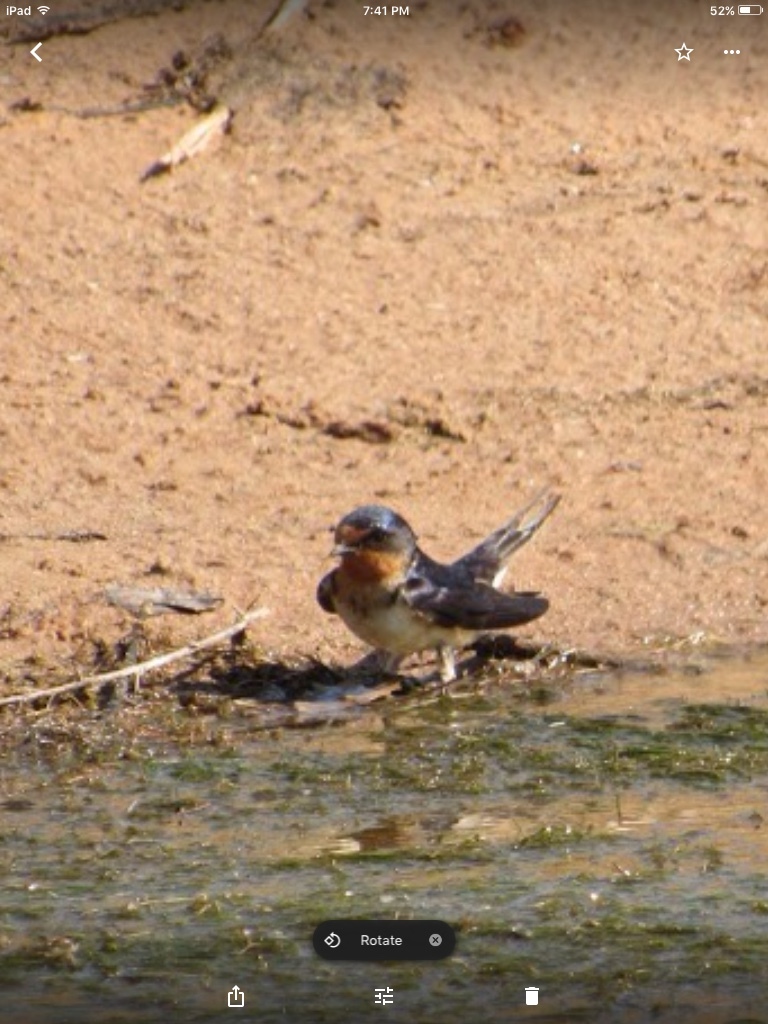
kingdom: Animalia
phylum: Chordata
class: Aves
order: Passeriformes
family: Hirundinidae
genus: Hirundo
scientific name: Hirundo rustica
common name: Barn swallow
